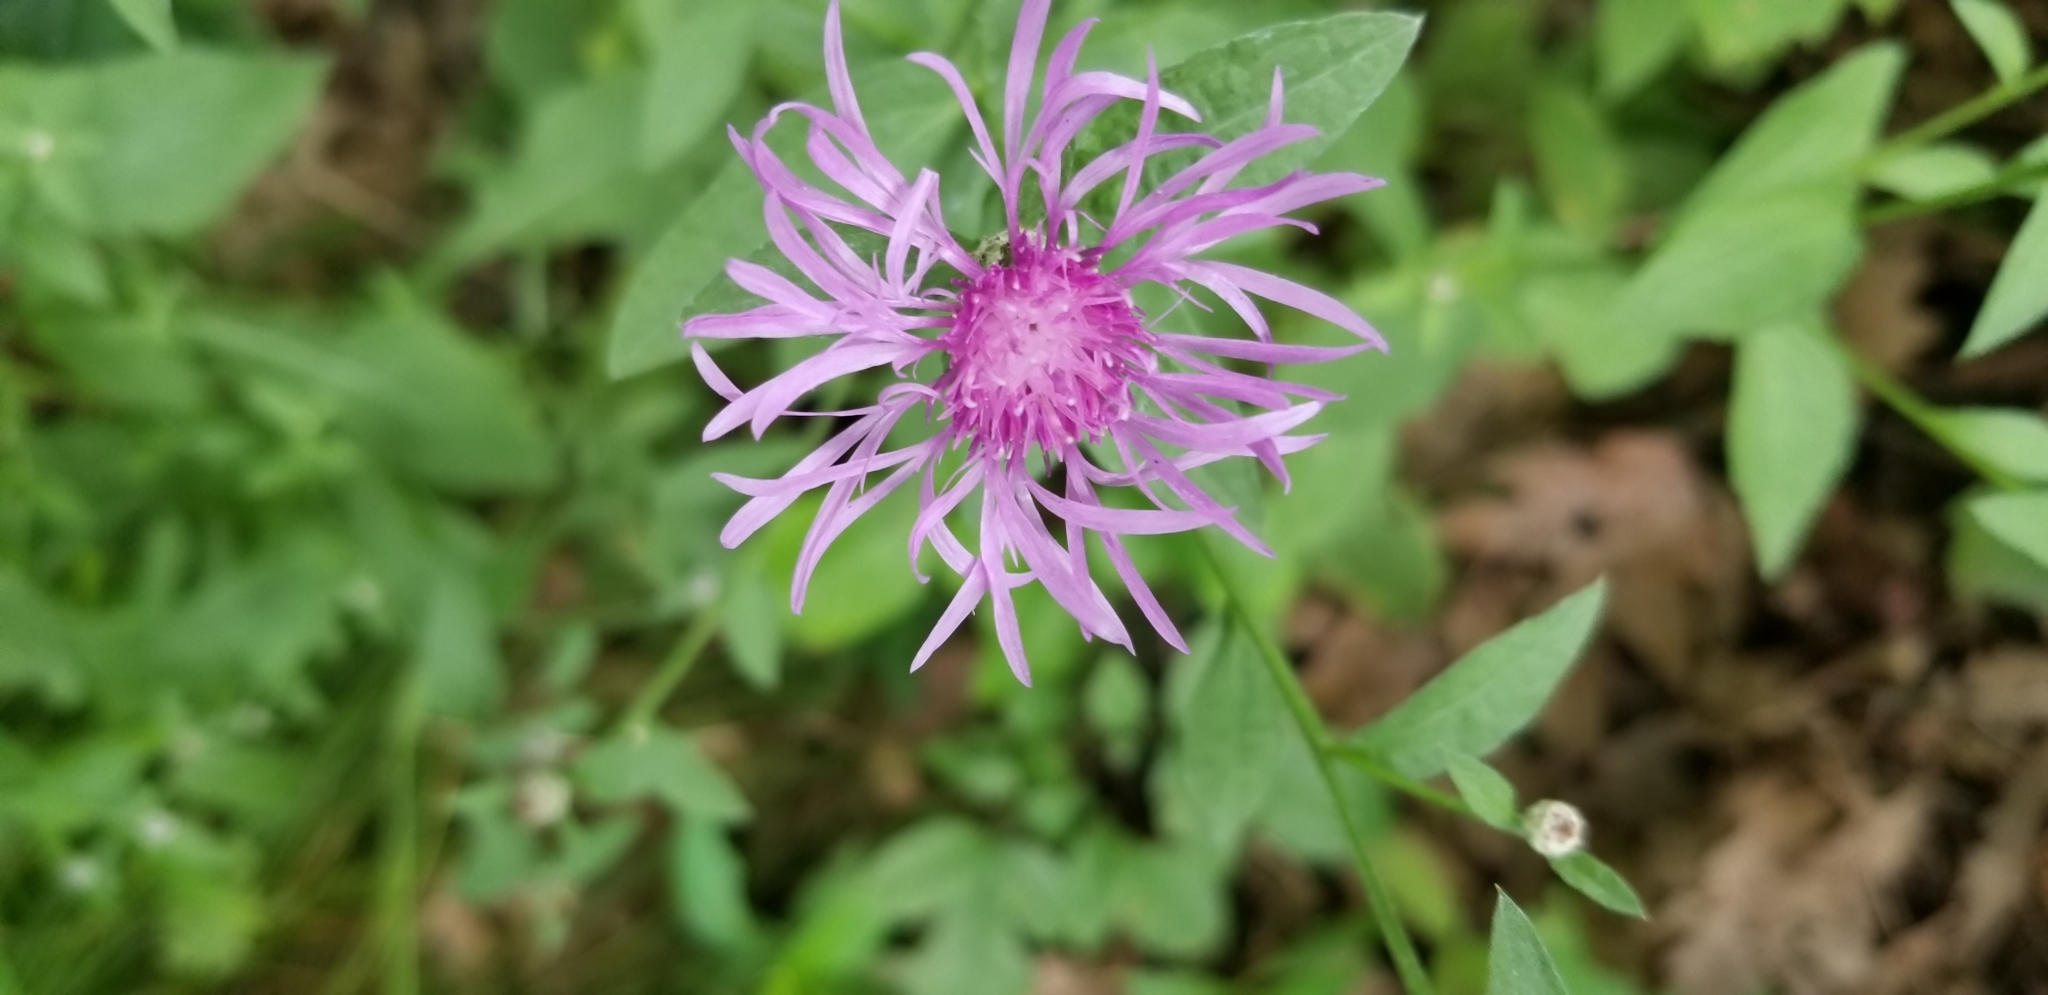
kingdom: Plantae
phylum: Tracheophyta
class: Magnoliopsida
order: Asterales
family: Asteraceae
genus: Centaurea
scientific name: Centaurea nigrescens
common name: Tyrol knapweed
